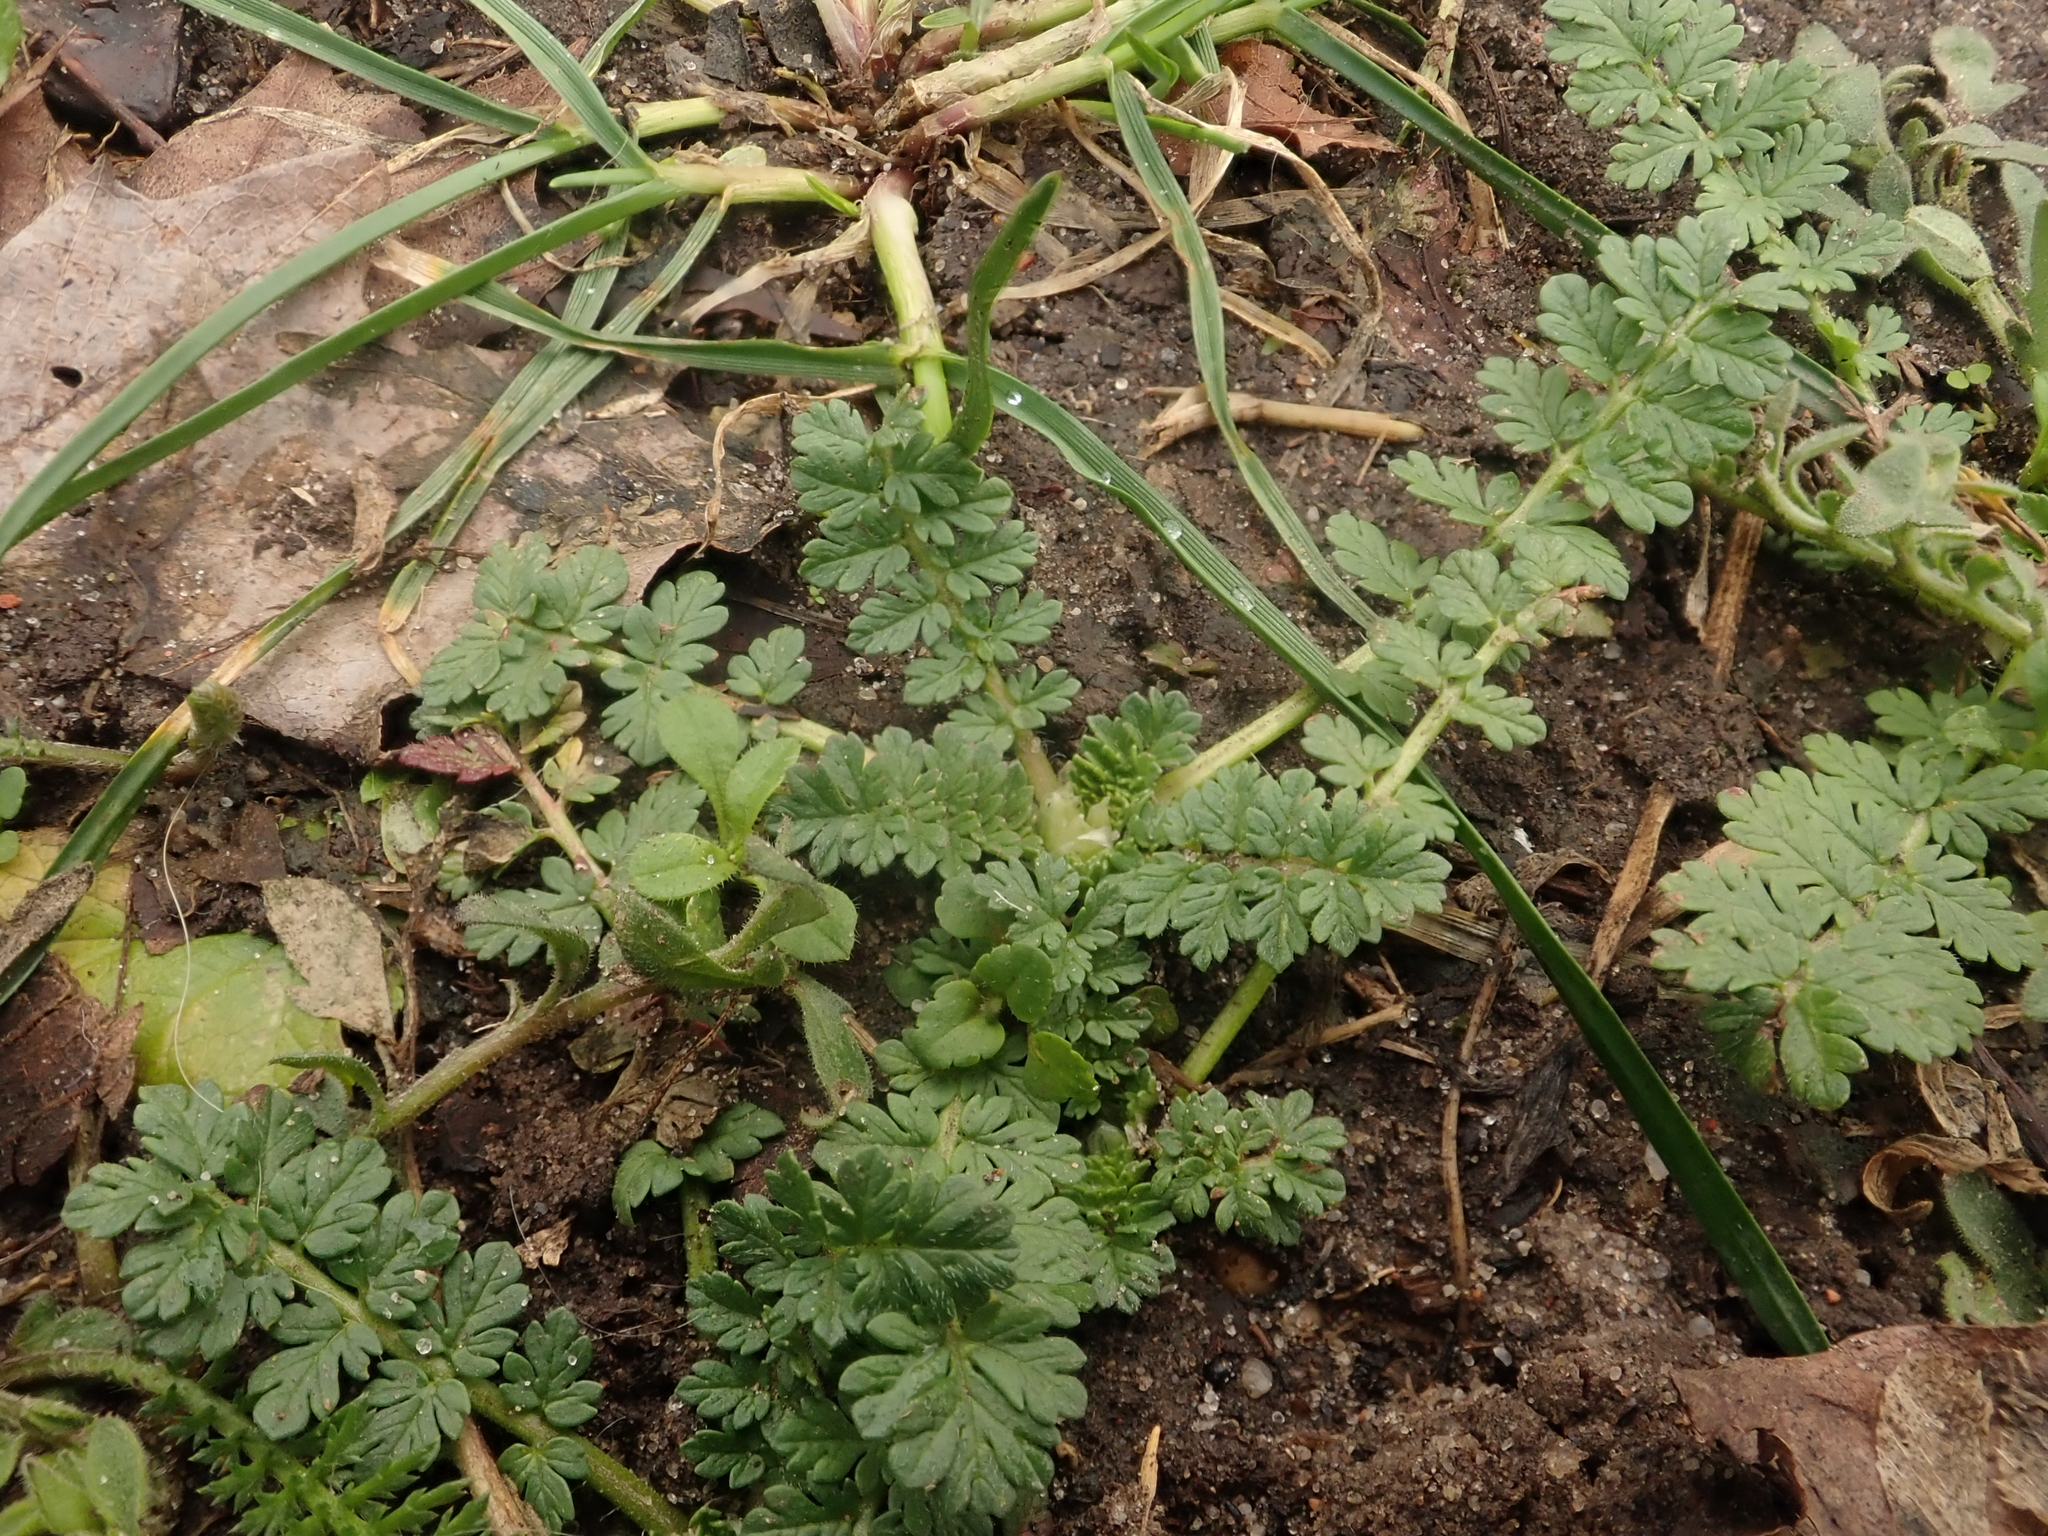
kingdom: Plantae
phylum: Tracheophyta
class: Magnoliopsida
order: Geraniales
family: Geraniaceae
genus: Erodium
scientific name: Erodium cicutarium
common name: Common stork's-bill
